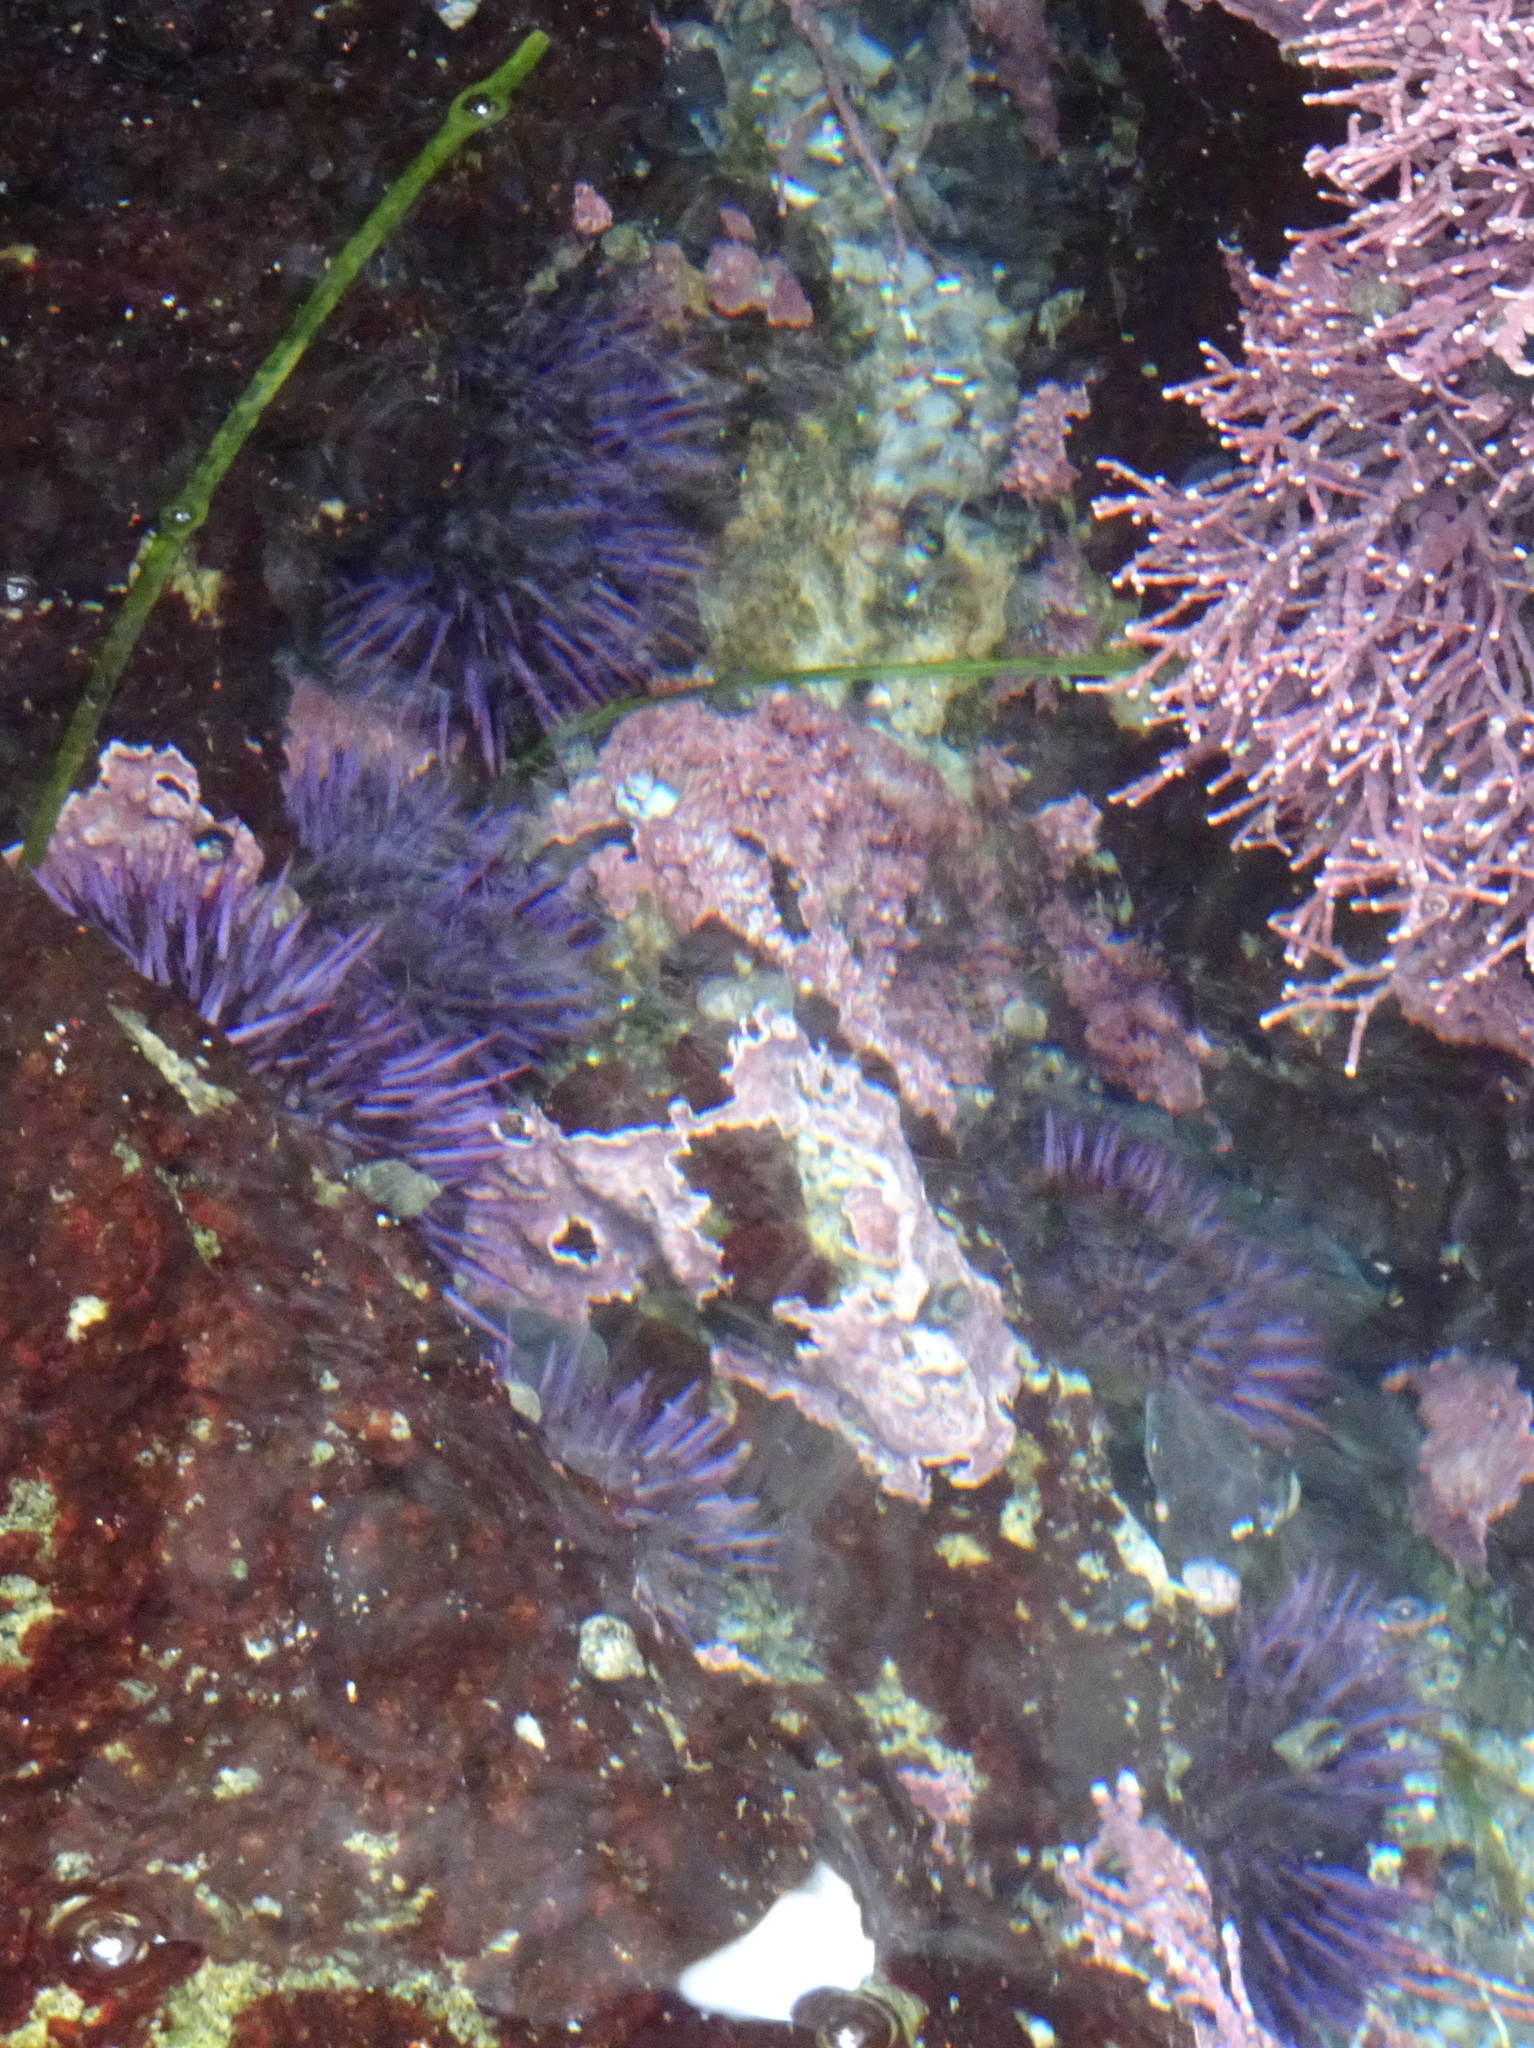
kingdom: Animalia
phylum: Echinodermata
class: Echinoidea
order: Camarodonta
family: Strongylocentrotidae
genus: Strongylocentrotus
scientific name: Strongylocentrotus purpuratus
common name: Purple sea urchin
